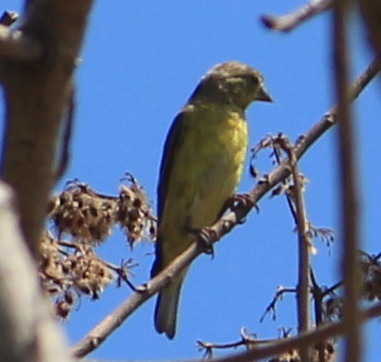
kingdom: Animalia
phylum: Chordata
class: Aves
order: Passeriformes
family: Fringillidae
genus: Spinus
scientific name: Spinus psaltria
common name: Lesser goldfinch
